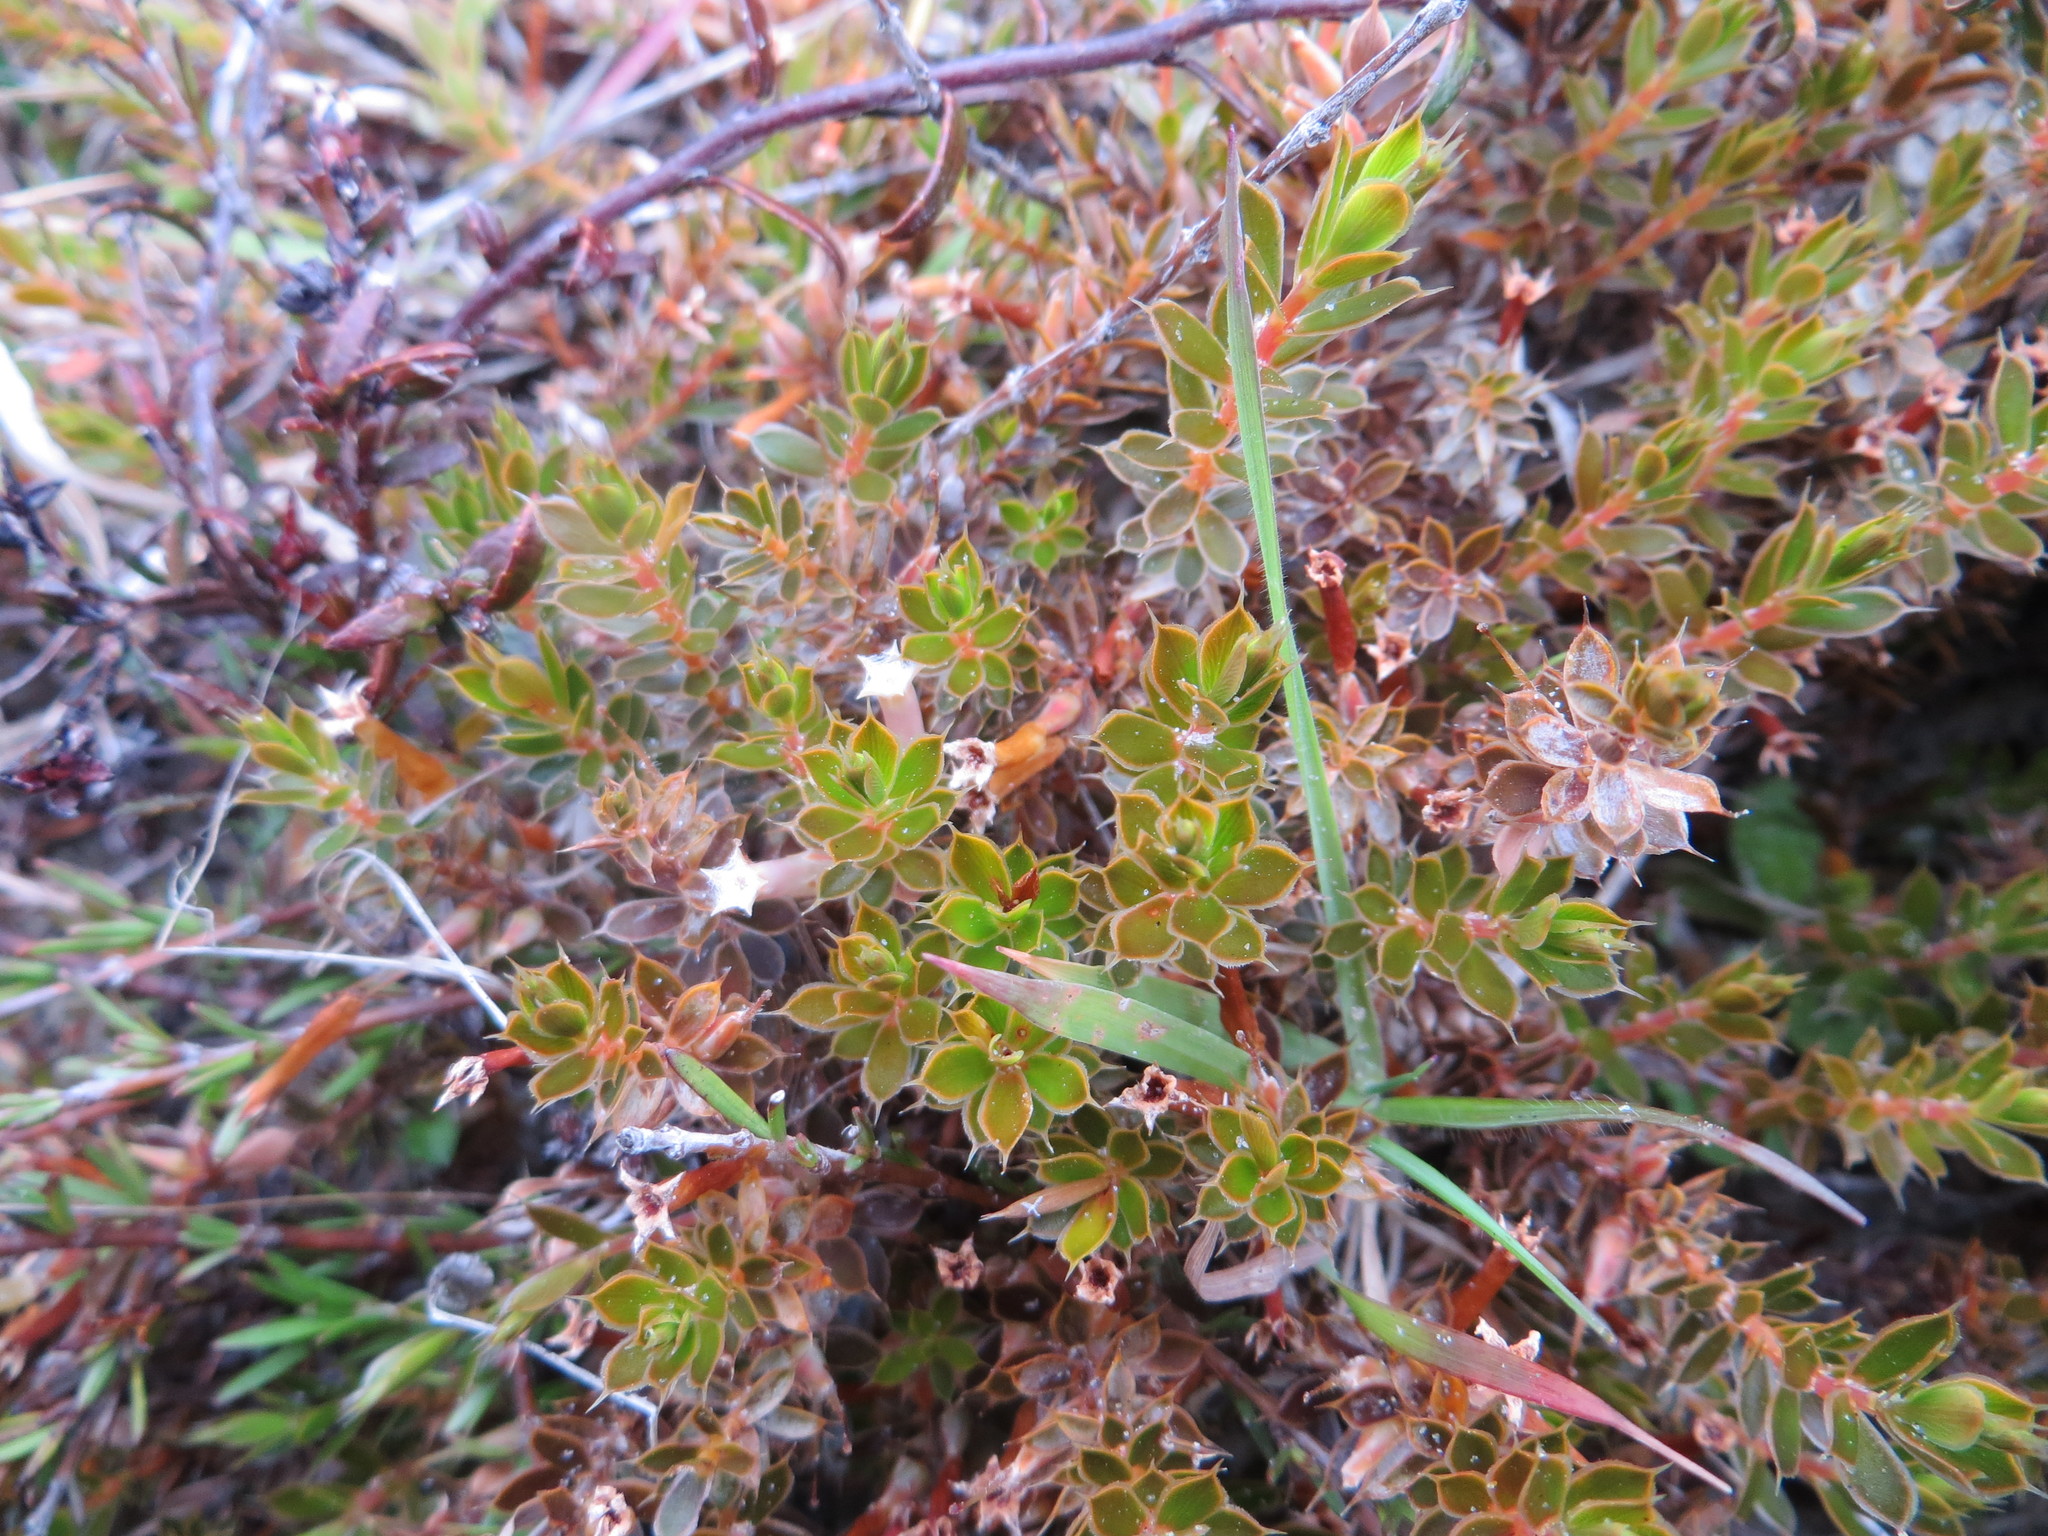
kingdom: Plantae
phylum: Tracheophyta
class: Magnoliopsida
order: Ericales
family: Ericaceae
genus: Styphelia
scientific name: Styphelia nesophila
